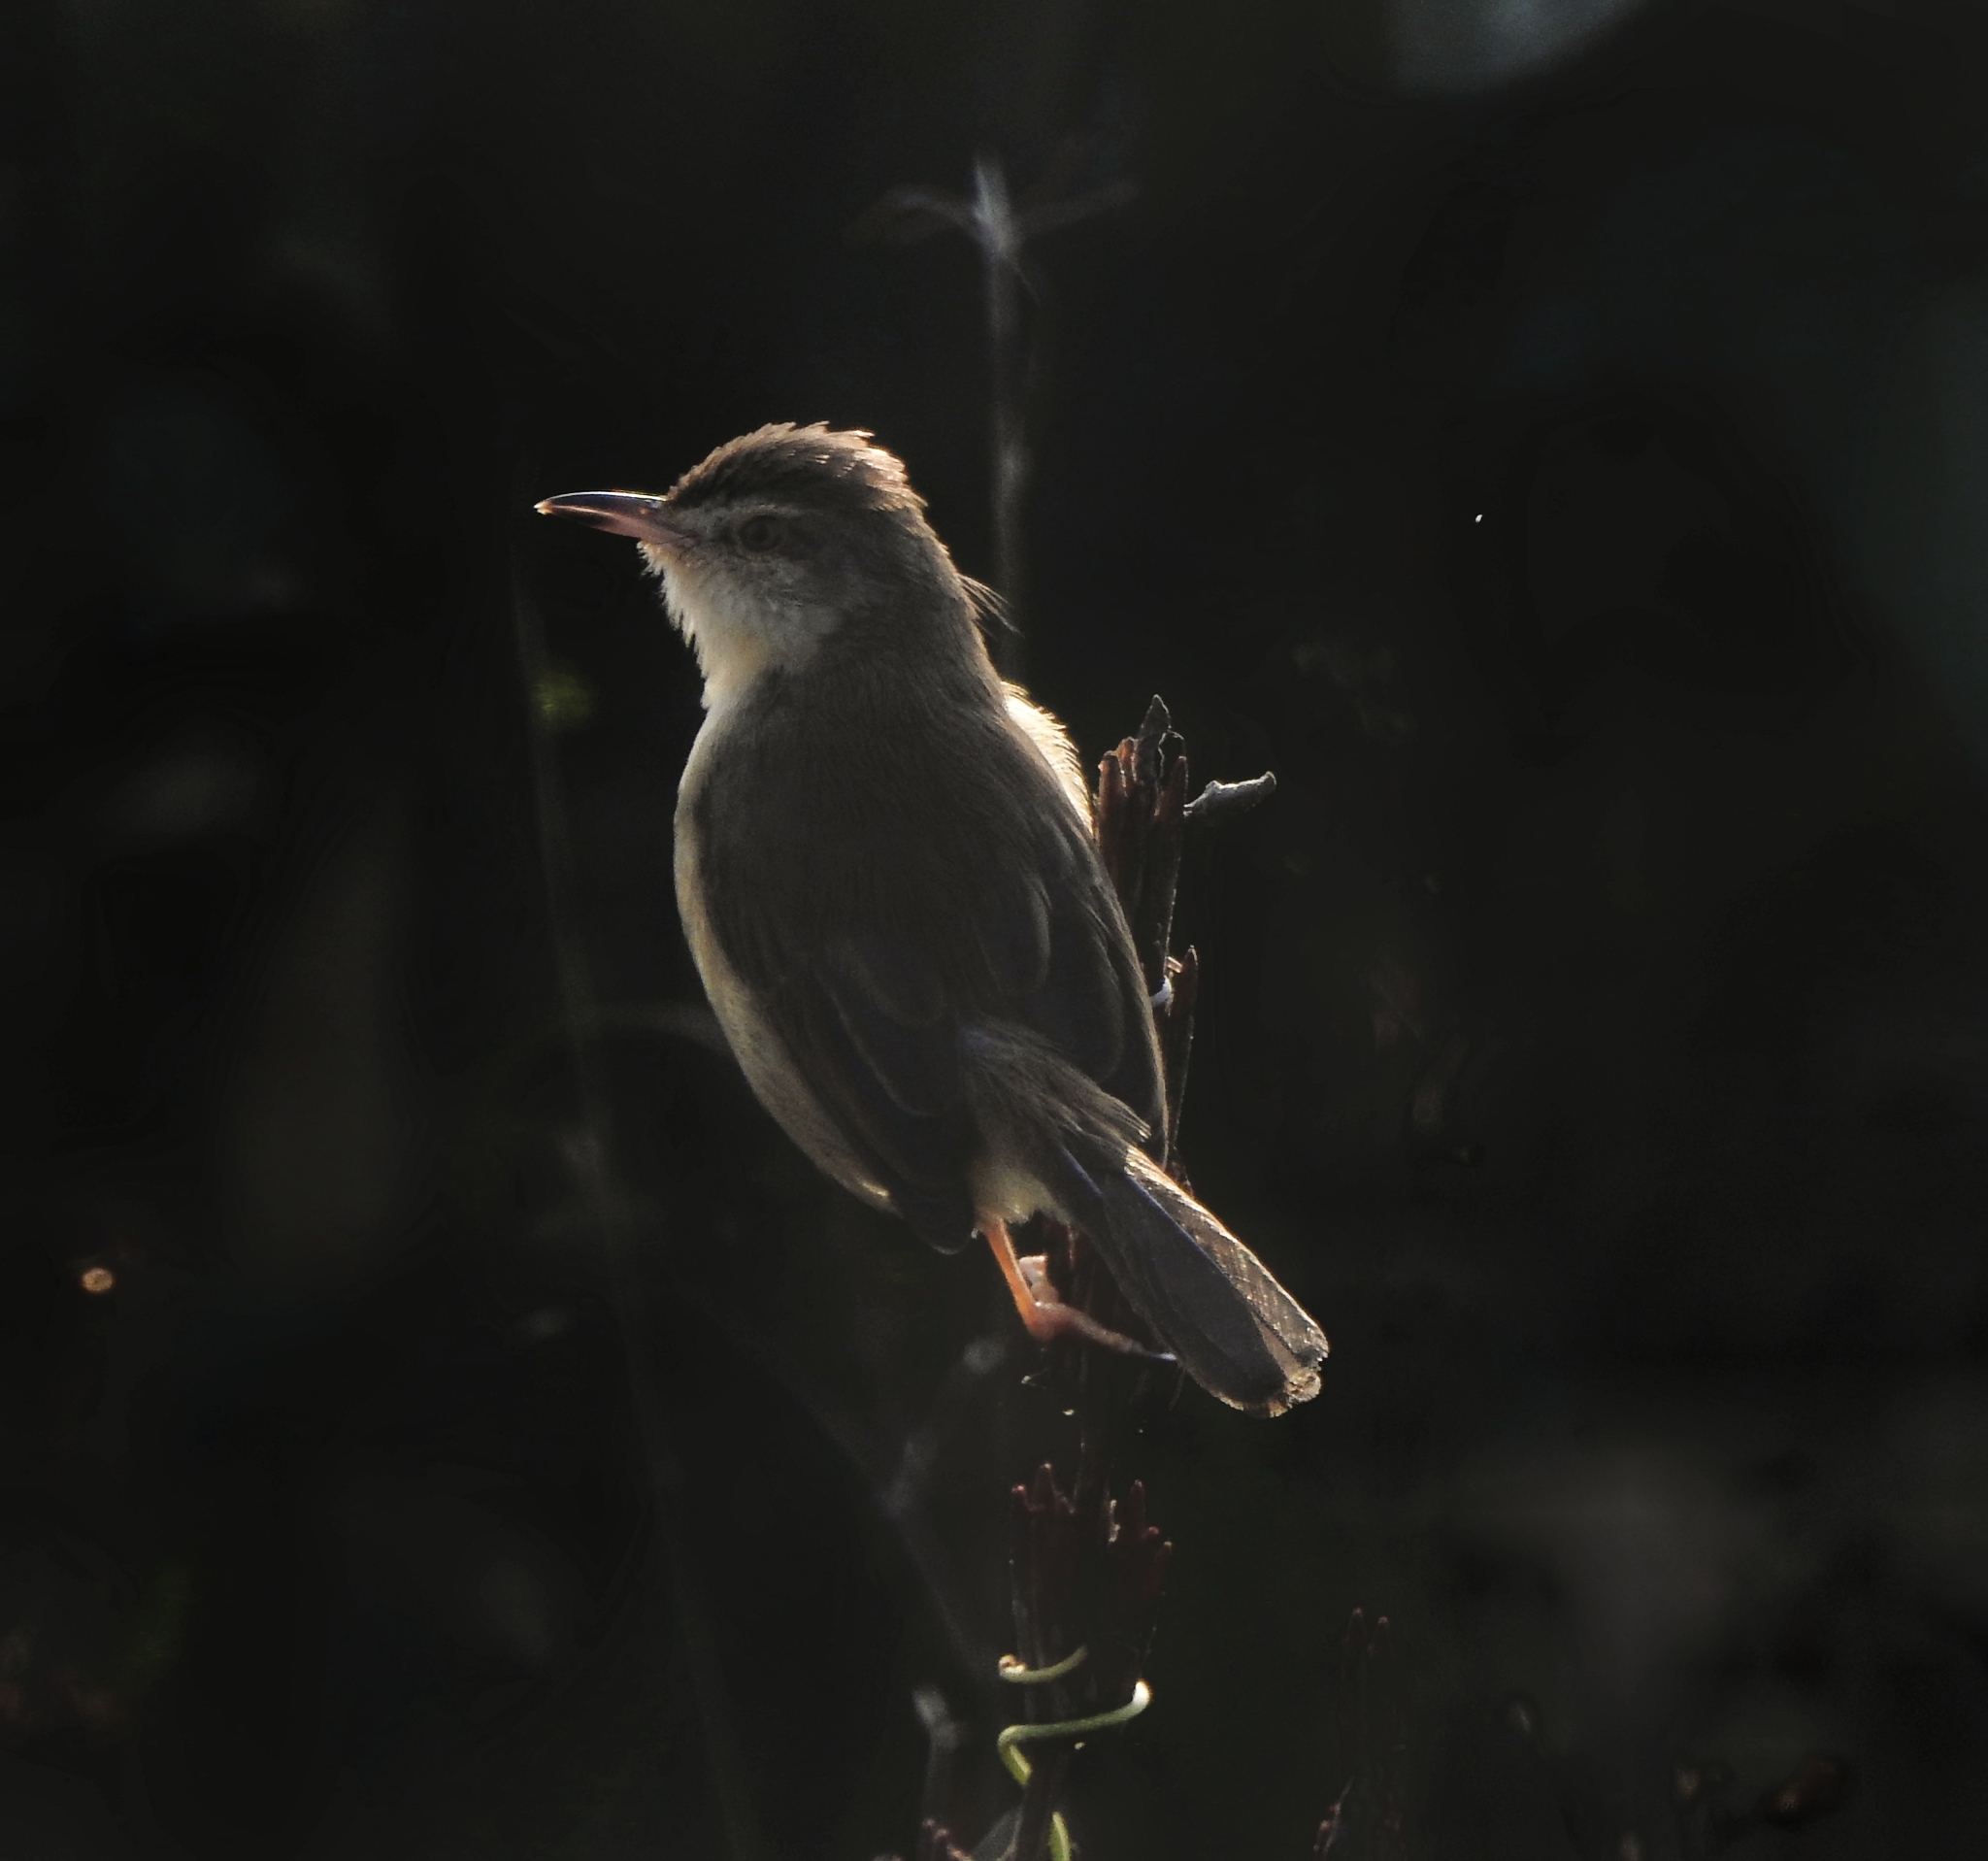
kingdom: Animalia
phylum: Chordata
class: Aves
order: Passeriformes
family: Cisticolidae
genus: Prinia
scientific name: Prinia inornata
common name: Plain prinia
